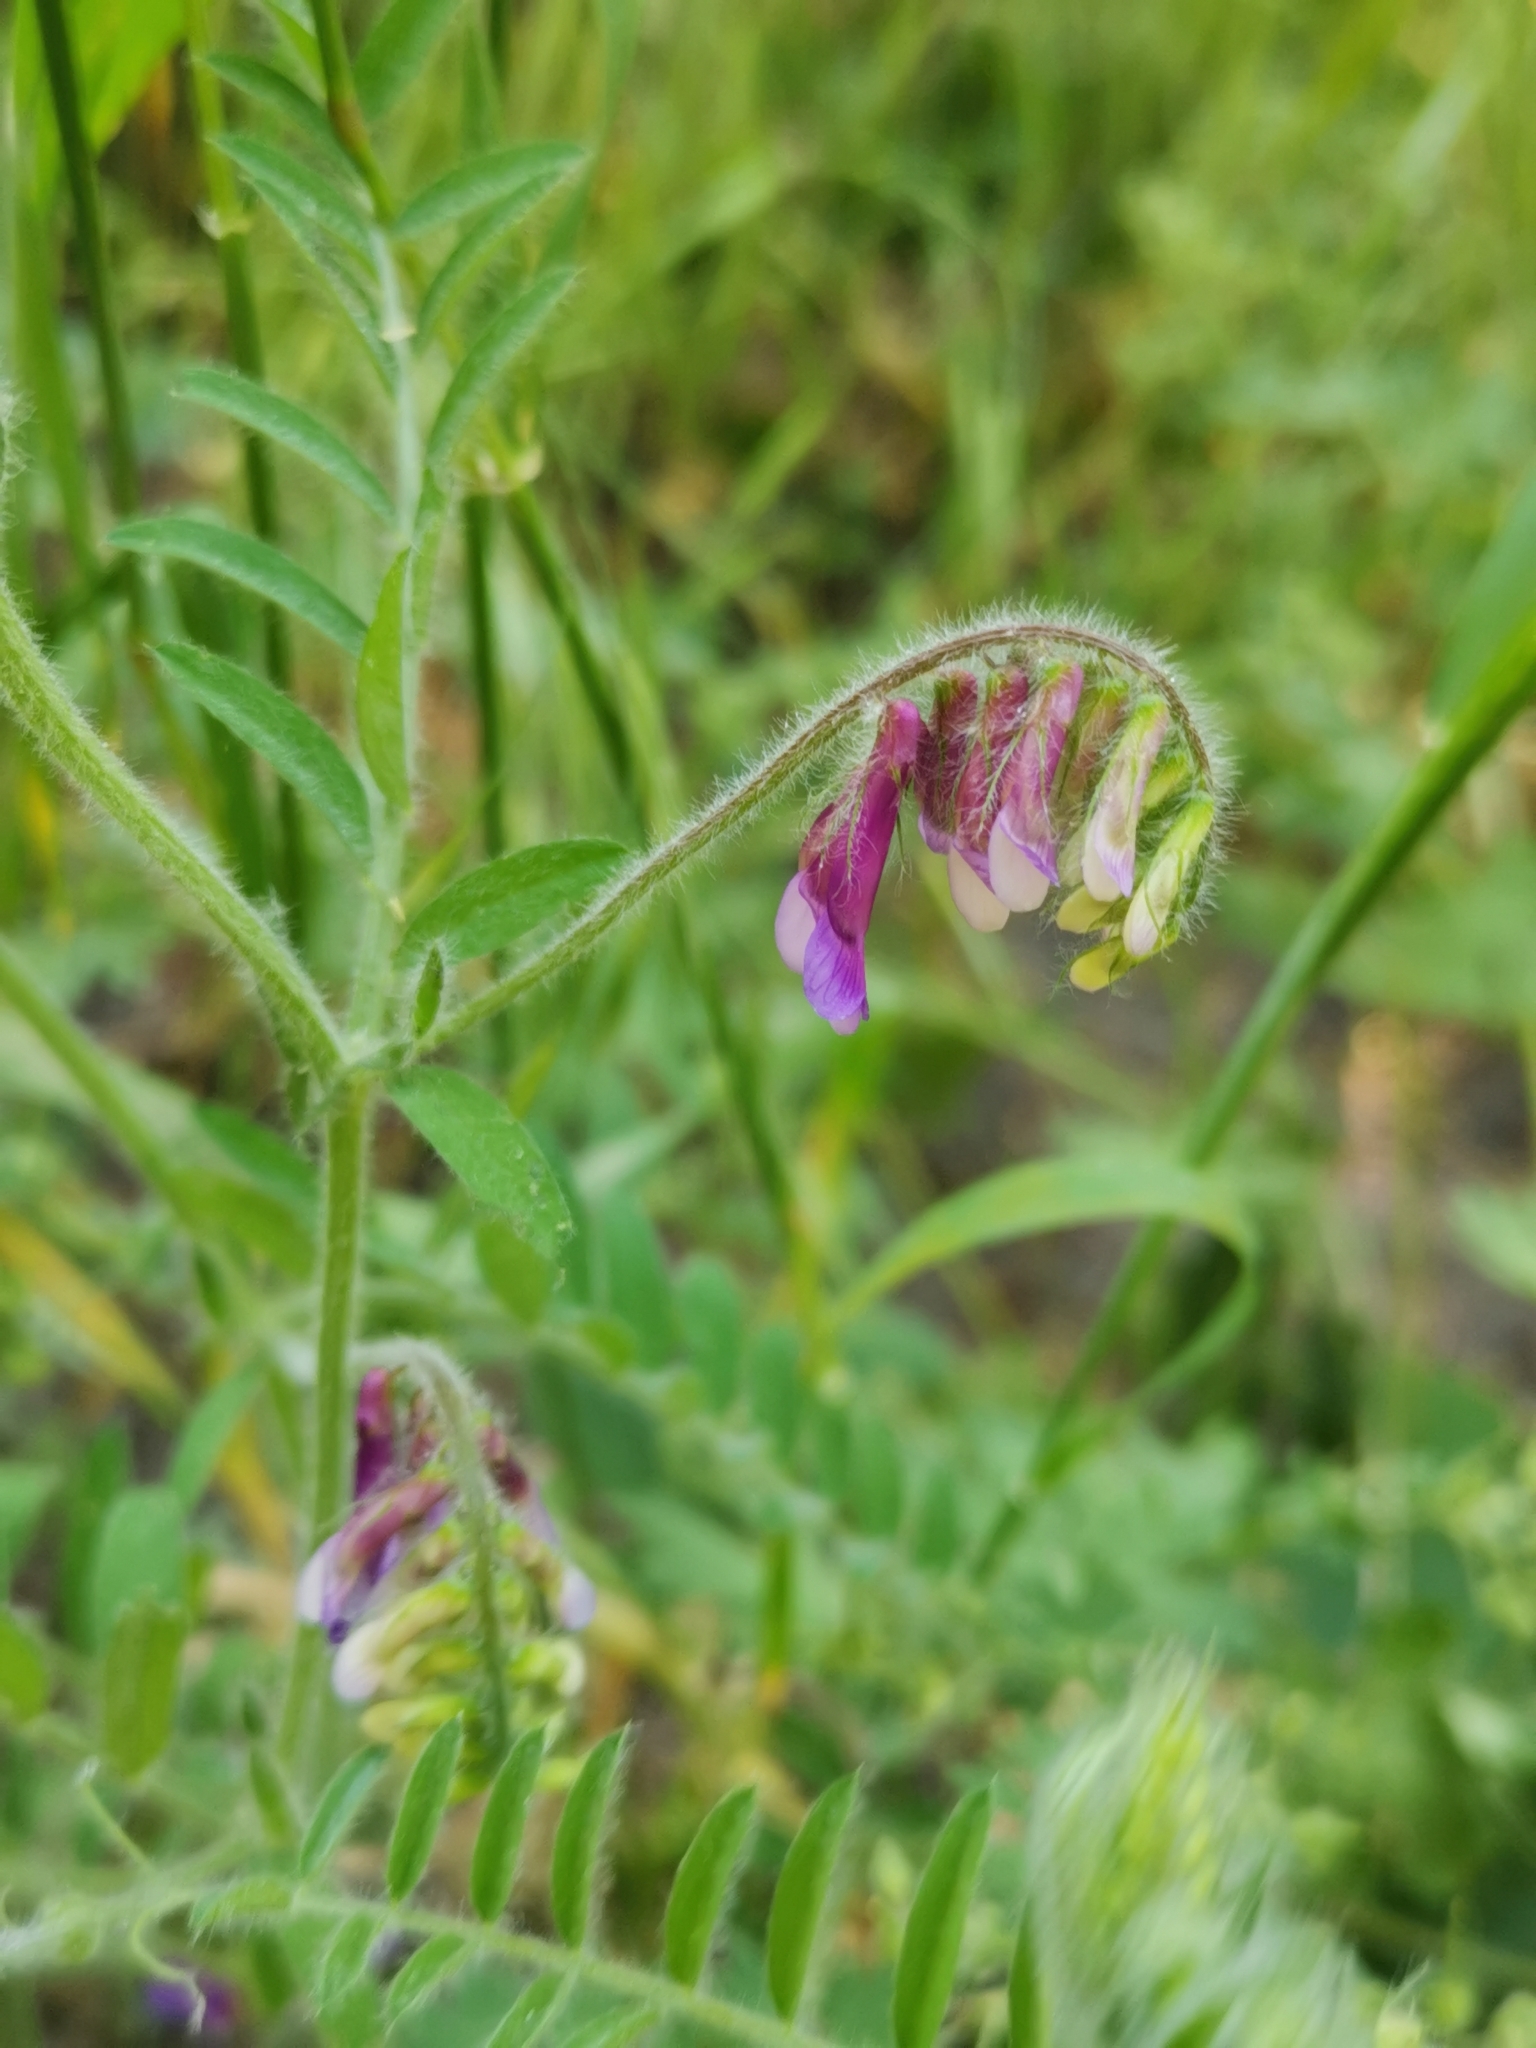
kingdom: Plantae
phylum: Tracheophyta
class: Magnoliopsida
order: Fabales
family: Fabaceae
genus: Vicia
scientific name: Vicia villosa
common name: Fodder vetch
